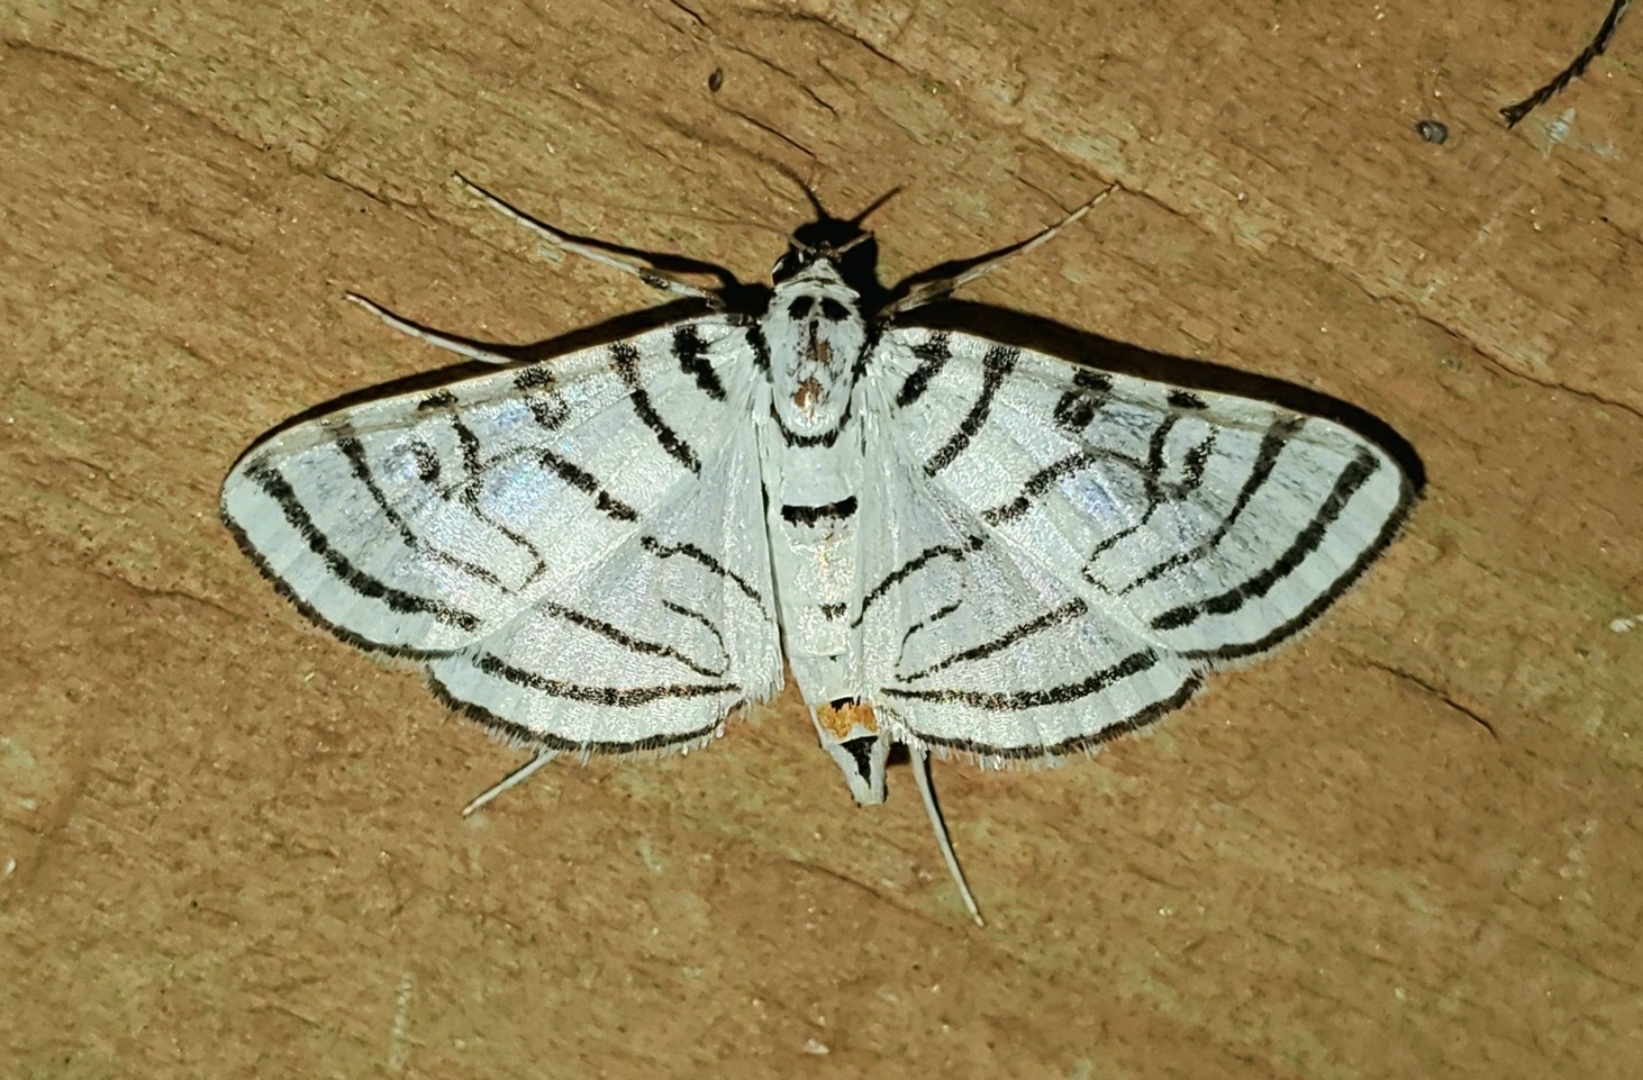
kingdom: Animalia
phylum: Arthropoda
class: Insecta
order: Lepidoptera
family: Crambidae
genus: Conchylodes
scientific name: Conchylodes concinnalis
